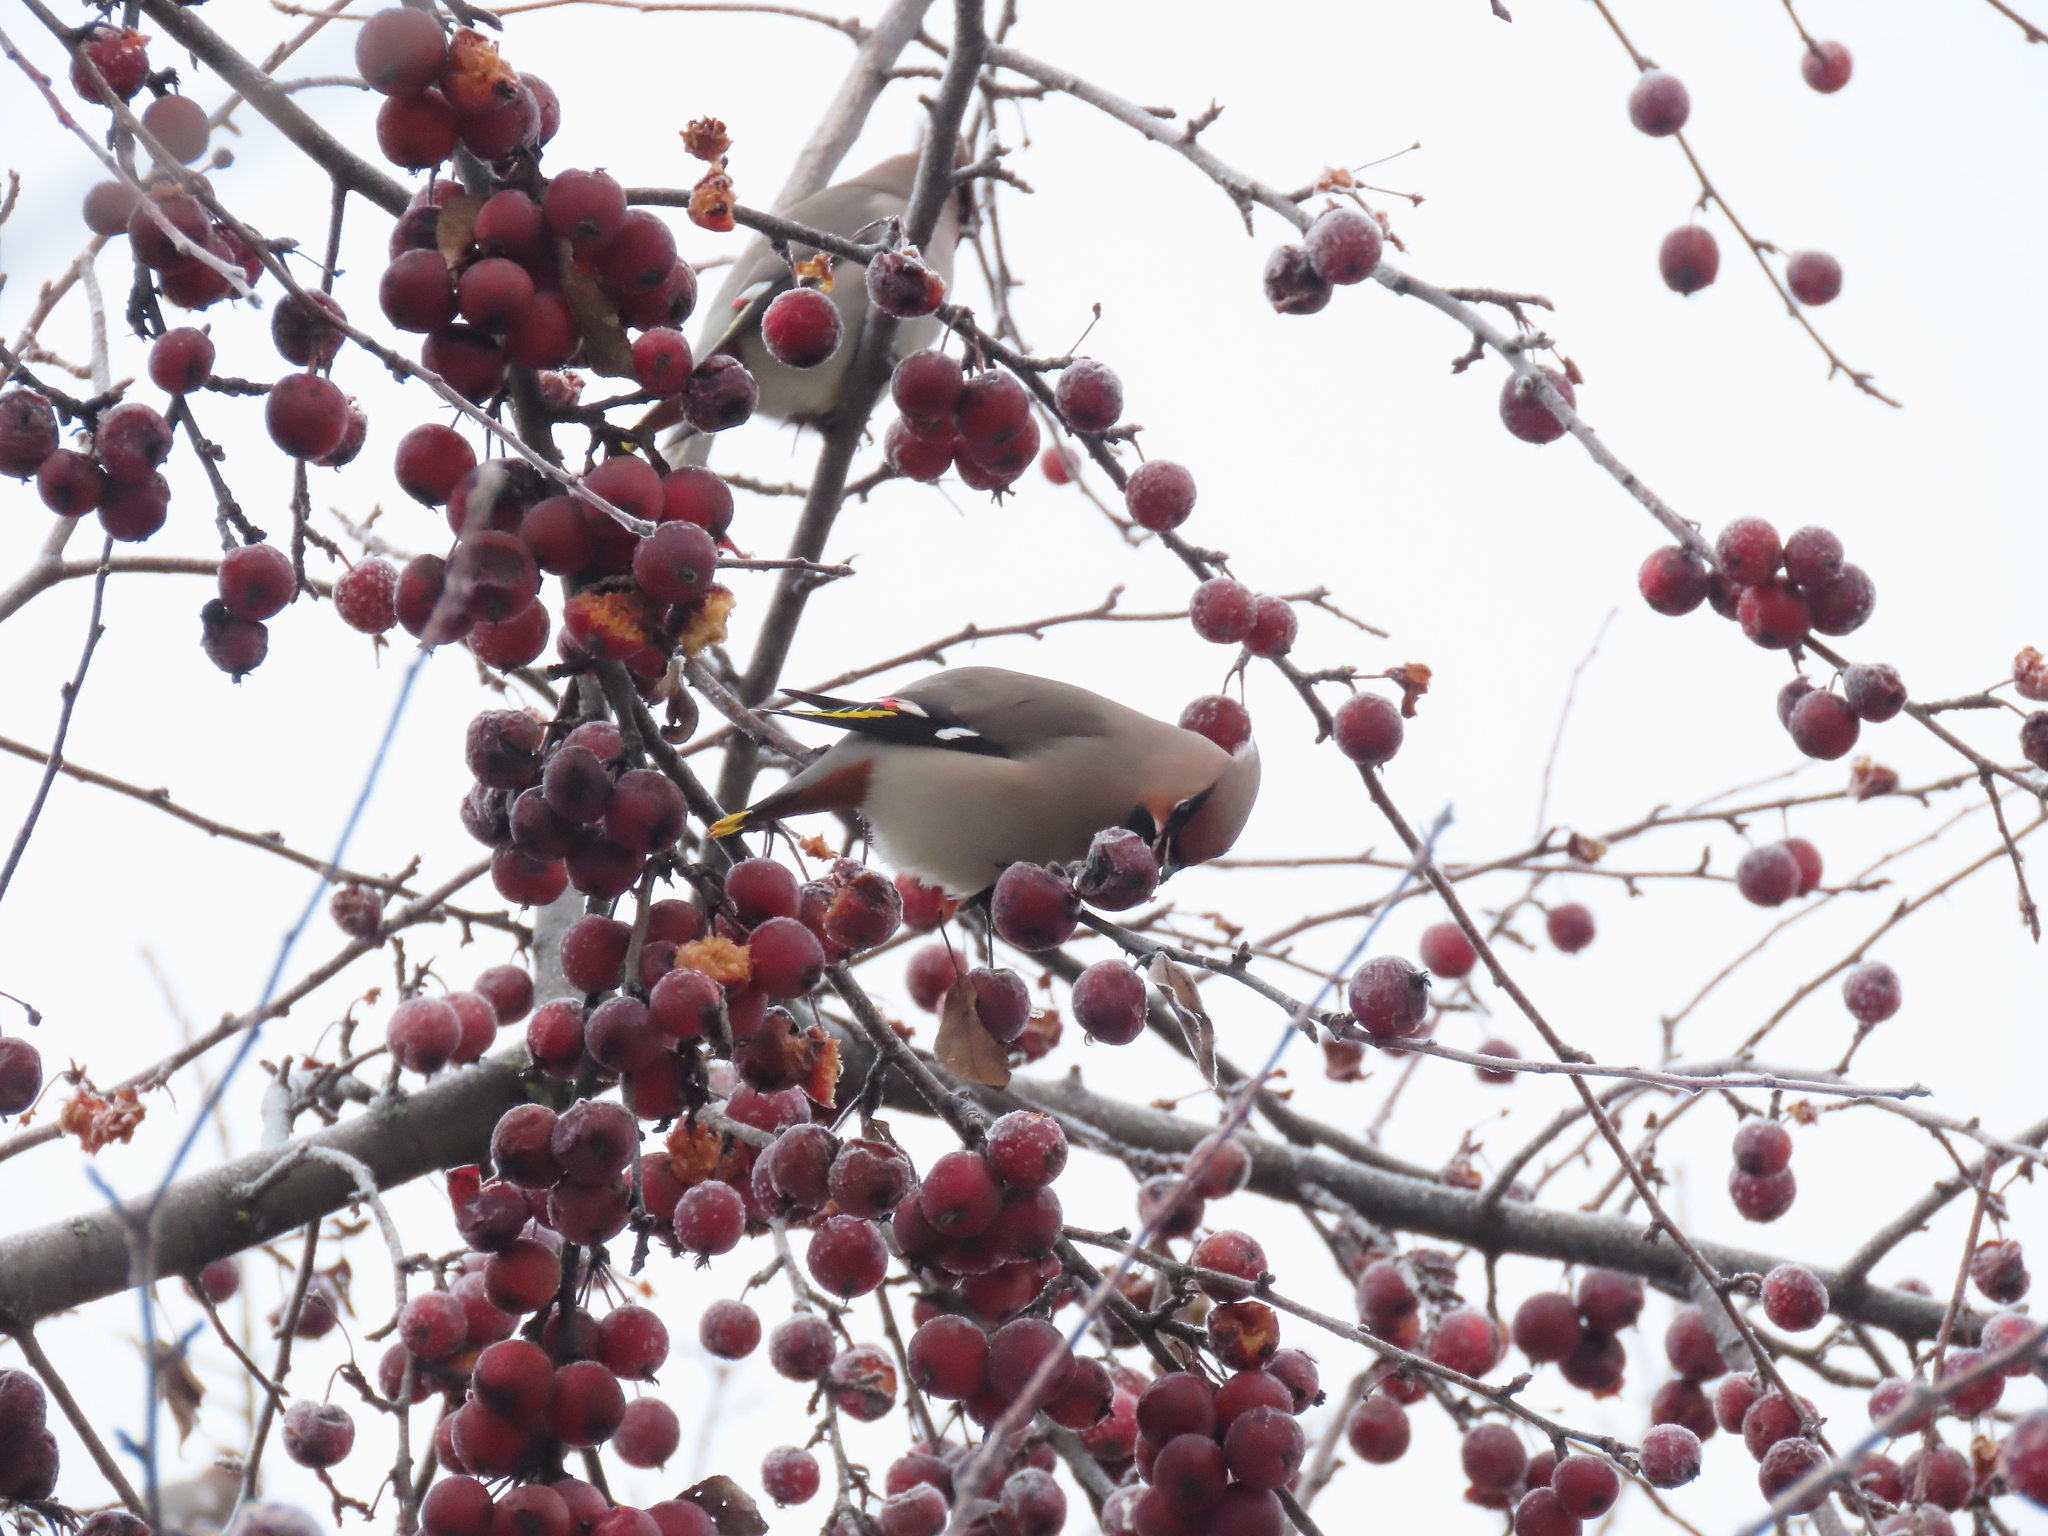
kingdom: Animalia
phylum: Chordata
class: Aves
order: Passeriformes
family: Bombycillidae
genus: Bombycilla
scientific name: Bombycilla garrulus
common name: Bohemian waxwing
